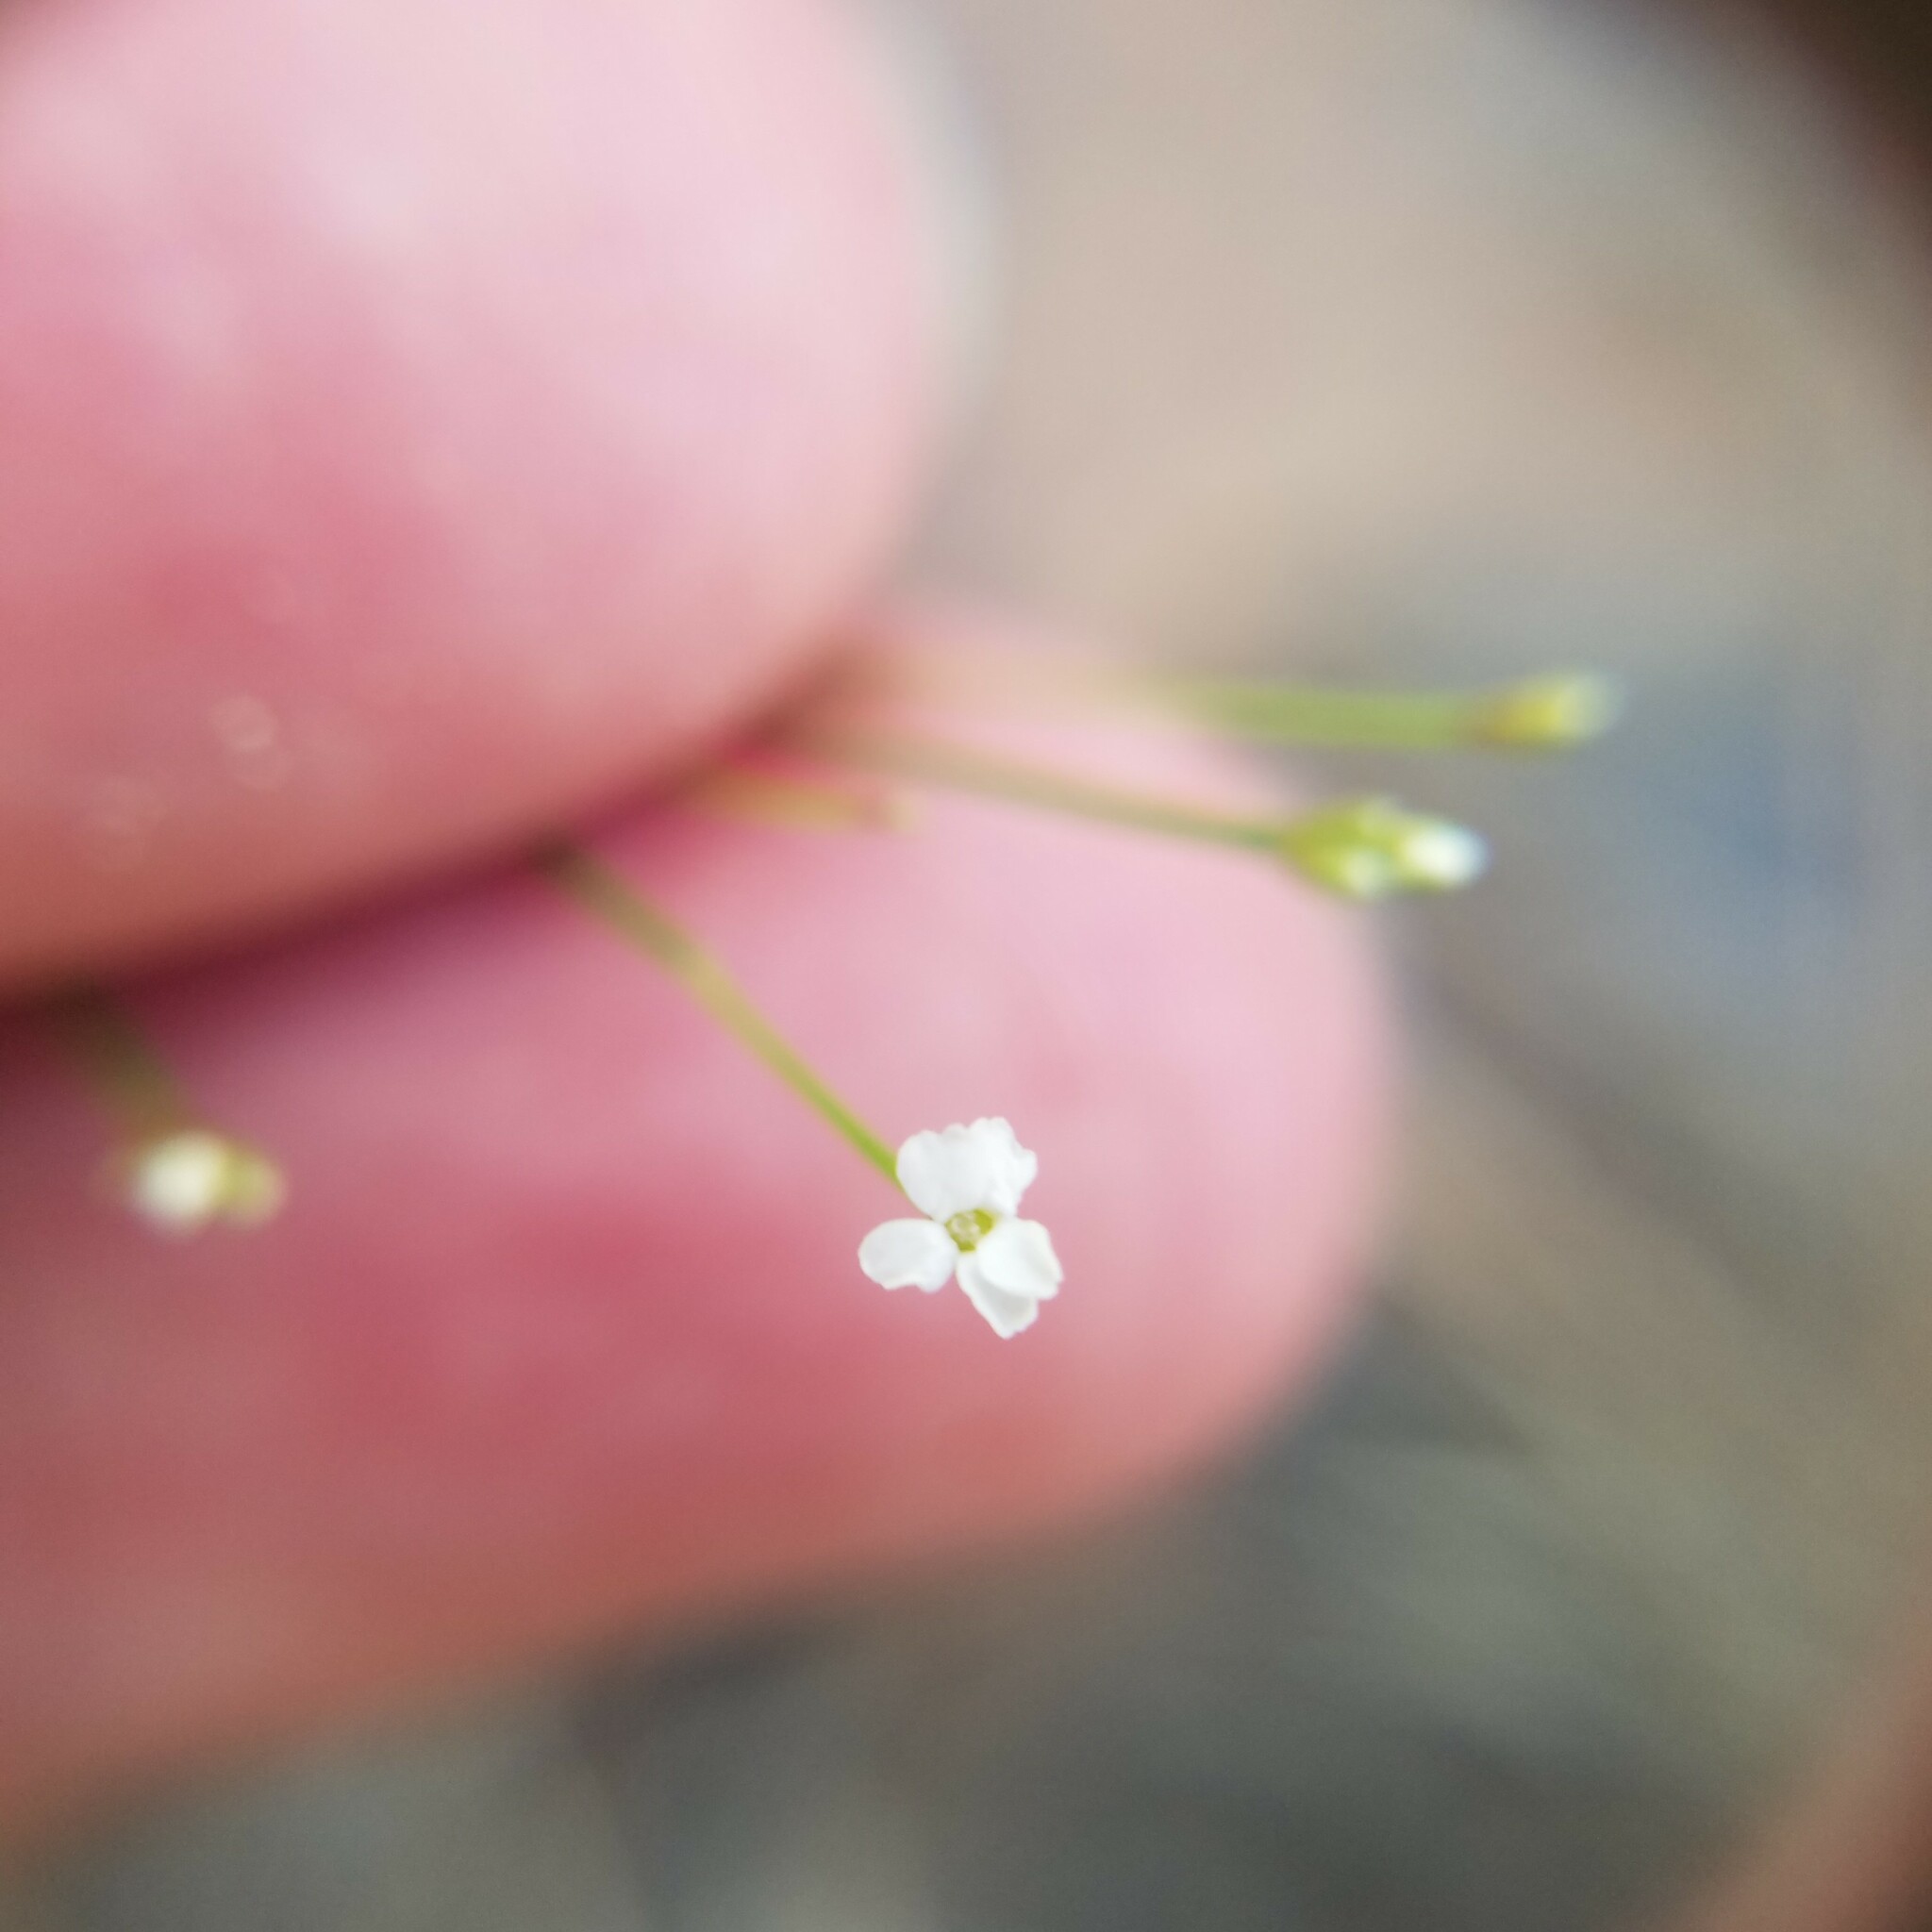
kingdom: Plantae
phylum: Tracheophyta
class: Magnoliopsida
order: Caryophyllales
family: Caryophyllaceae
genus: Stipulicida
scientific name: Stipulicida setacea
